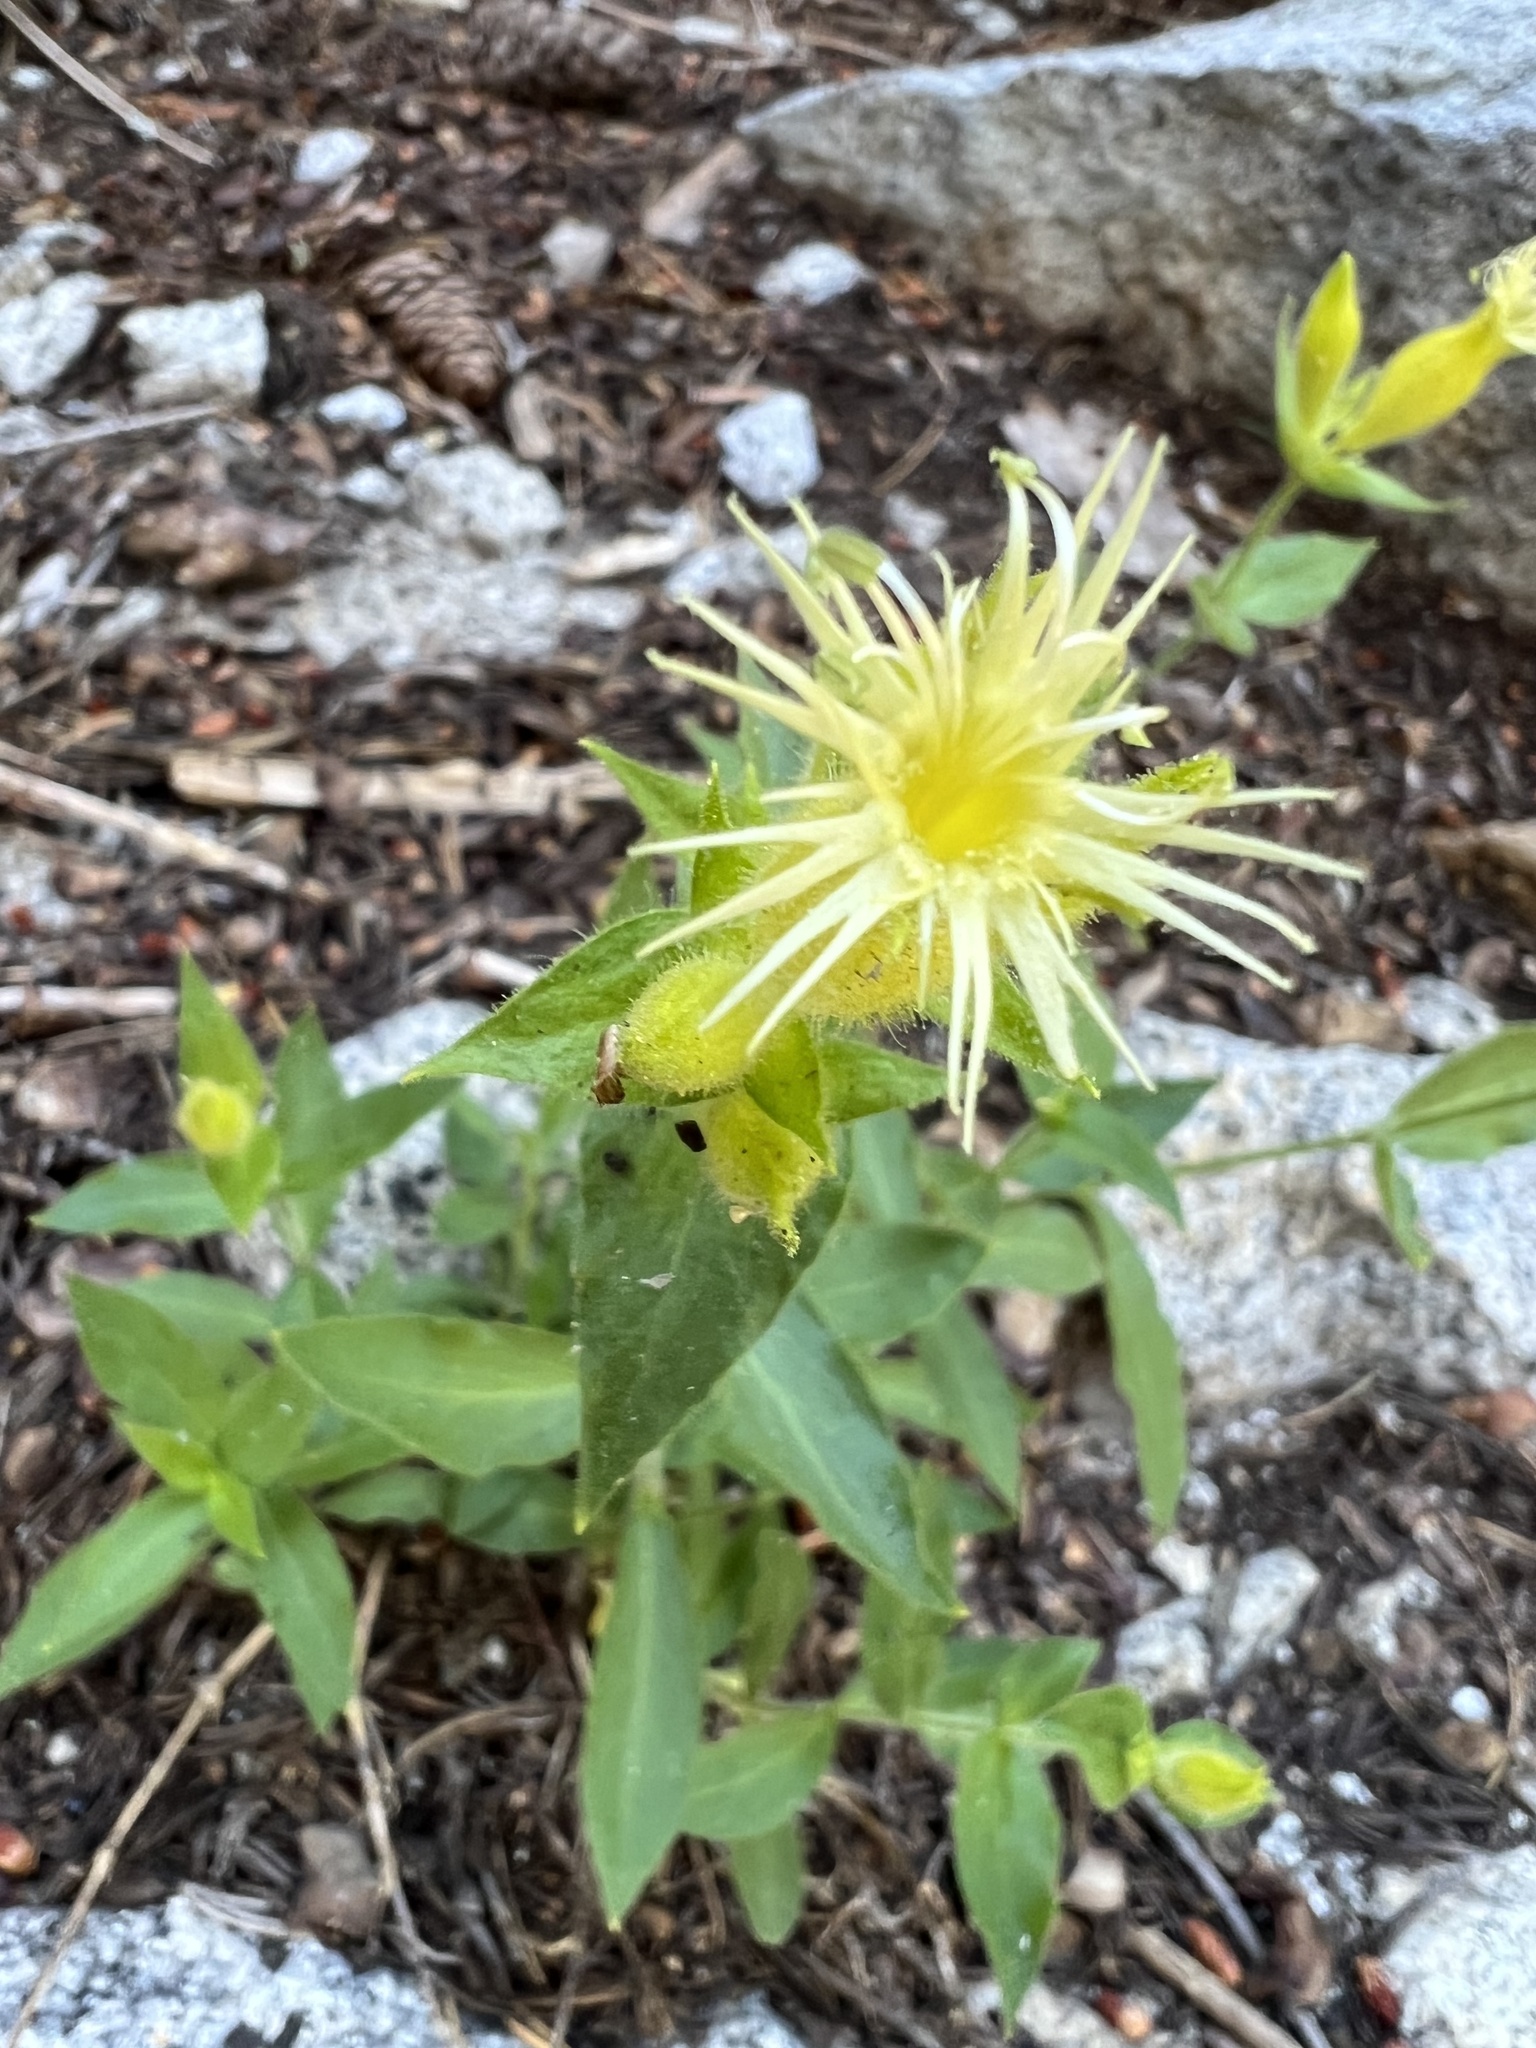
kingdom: Plantae
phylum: Tracheophyta
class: Magnoliopsida
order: Caryophyllales
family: Caryophyllaceae
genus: Silene
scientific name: Silene parishii
